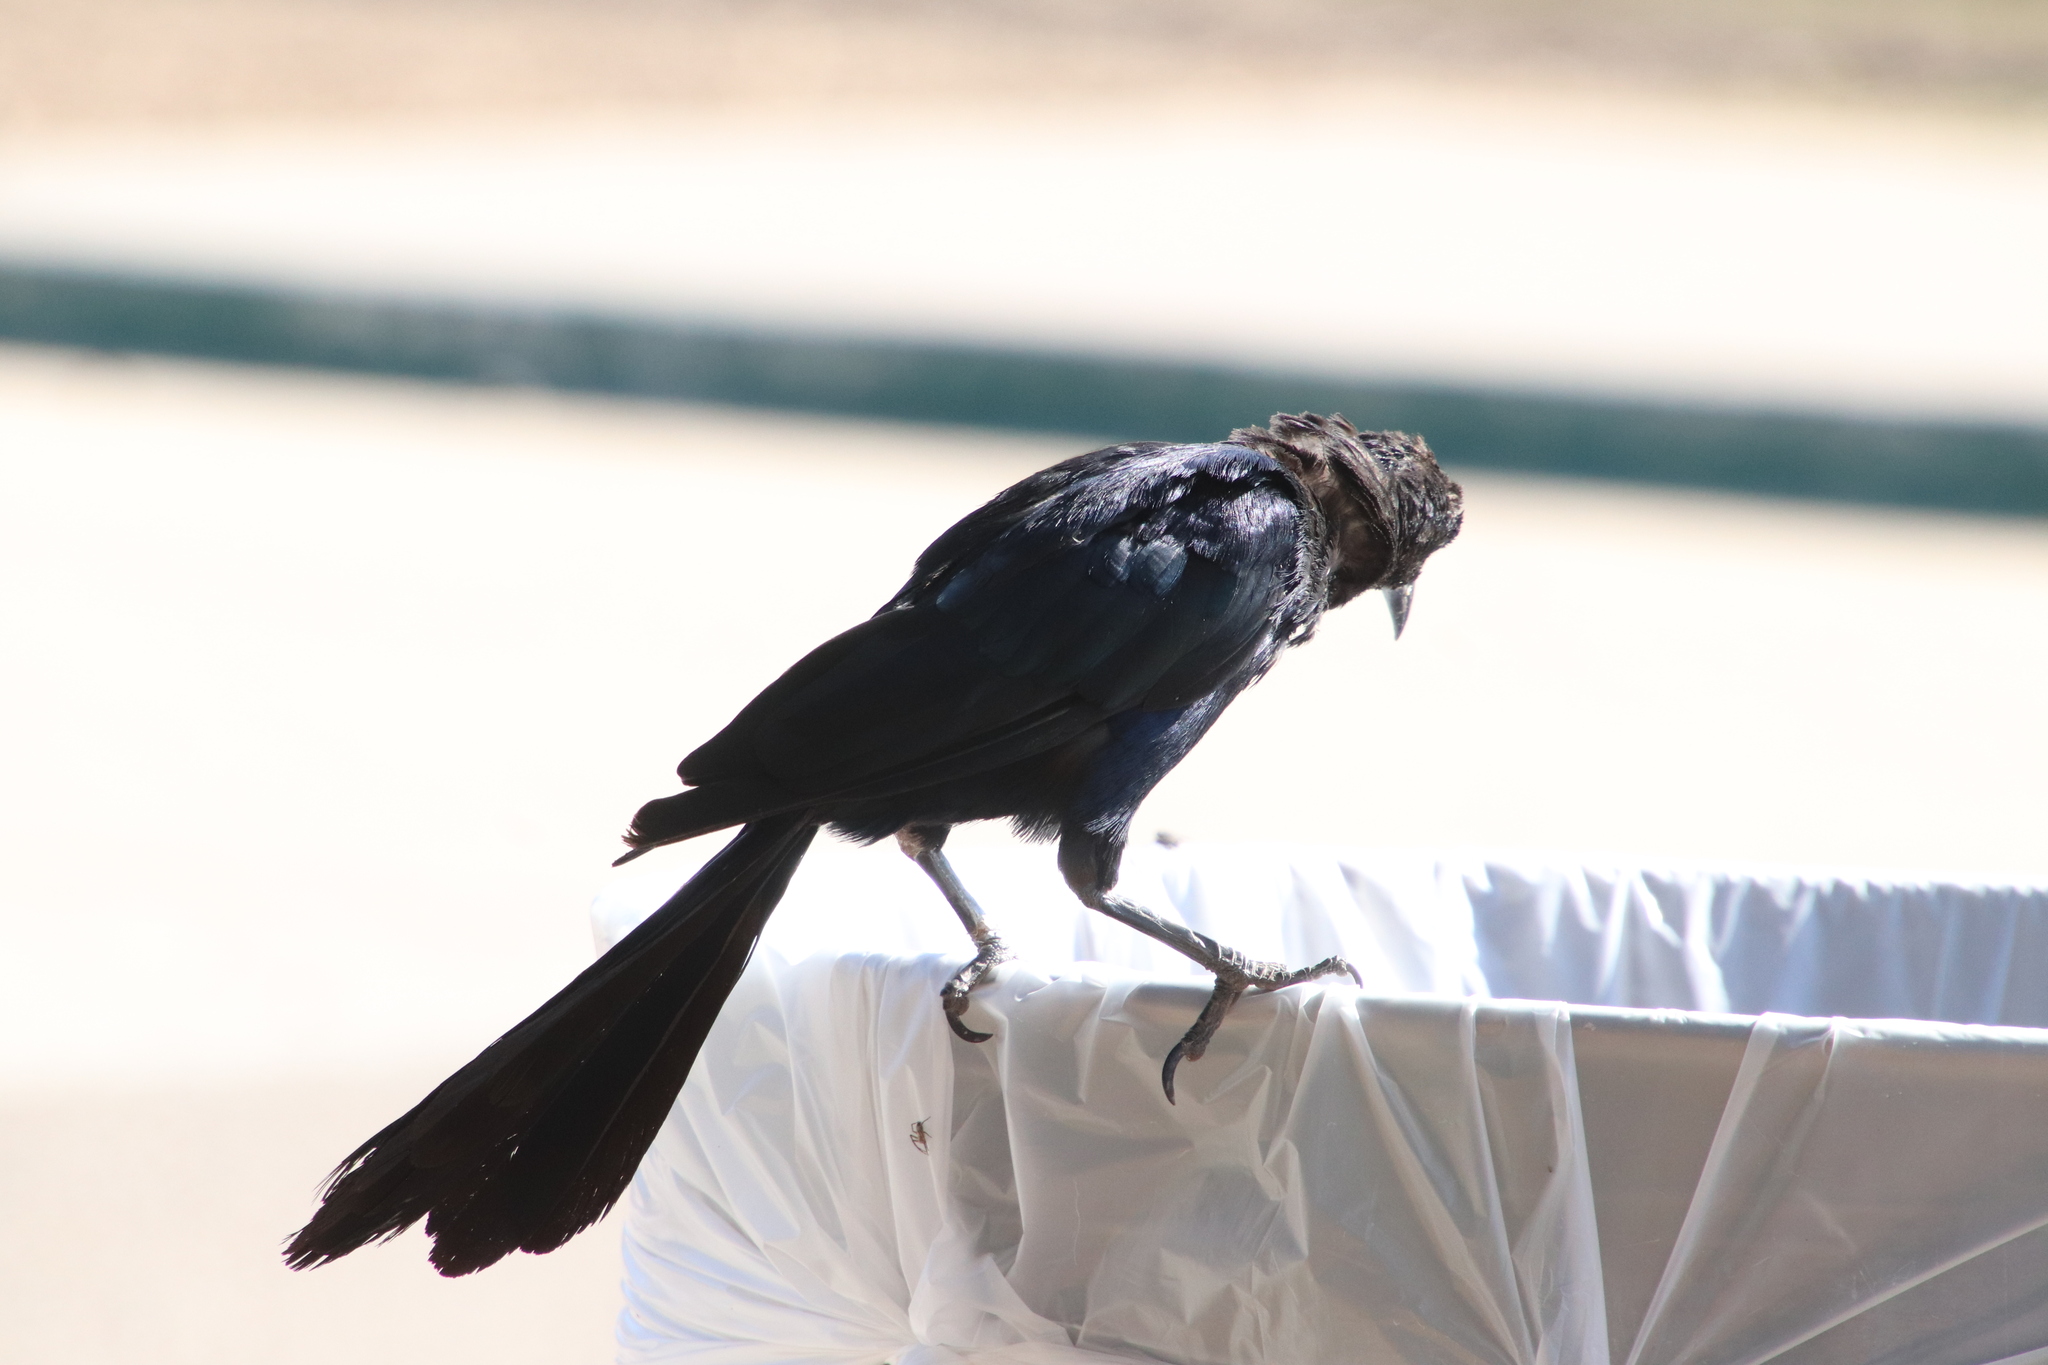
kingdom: Animalia
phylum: Chordata
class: Aves
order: Passeriformes
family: Icteridae
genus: Quiscalus
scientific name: Quiscalus mexicanus
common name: Great-tailed grackle
